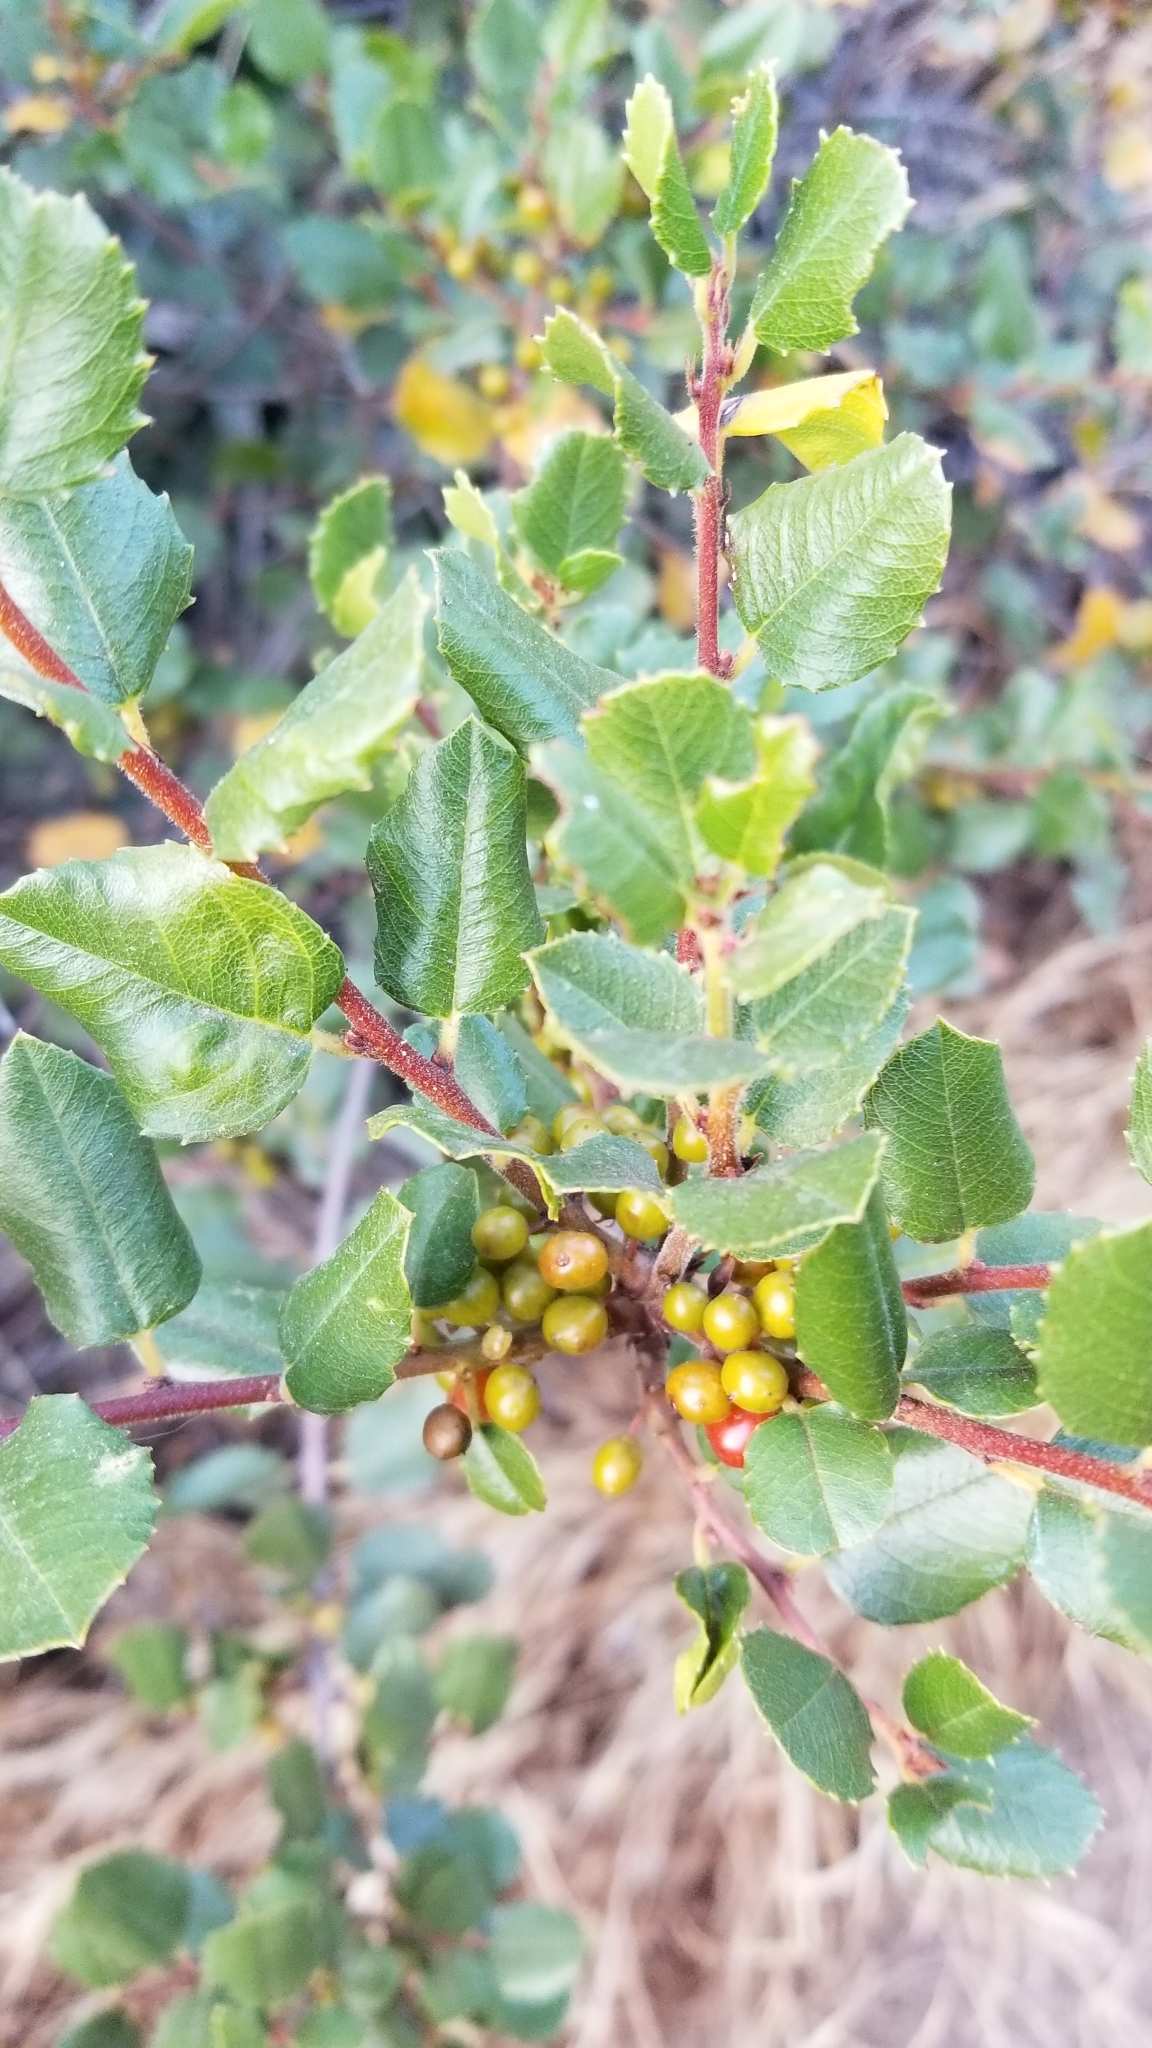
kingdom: Plantae
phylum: Tracheophyta
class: Magnoliopsida
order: Rosales
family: Rhamnaceae
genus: Endotropis
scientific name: Endotropis crocea
